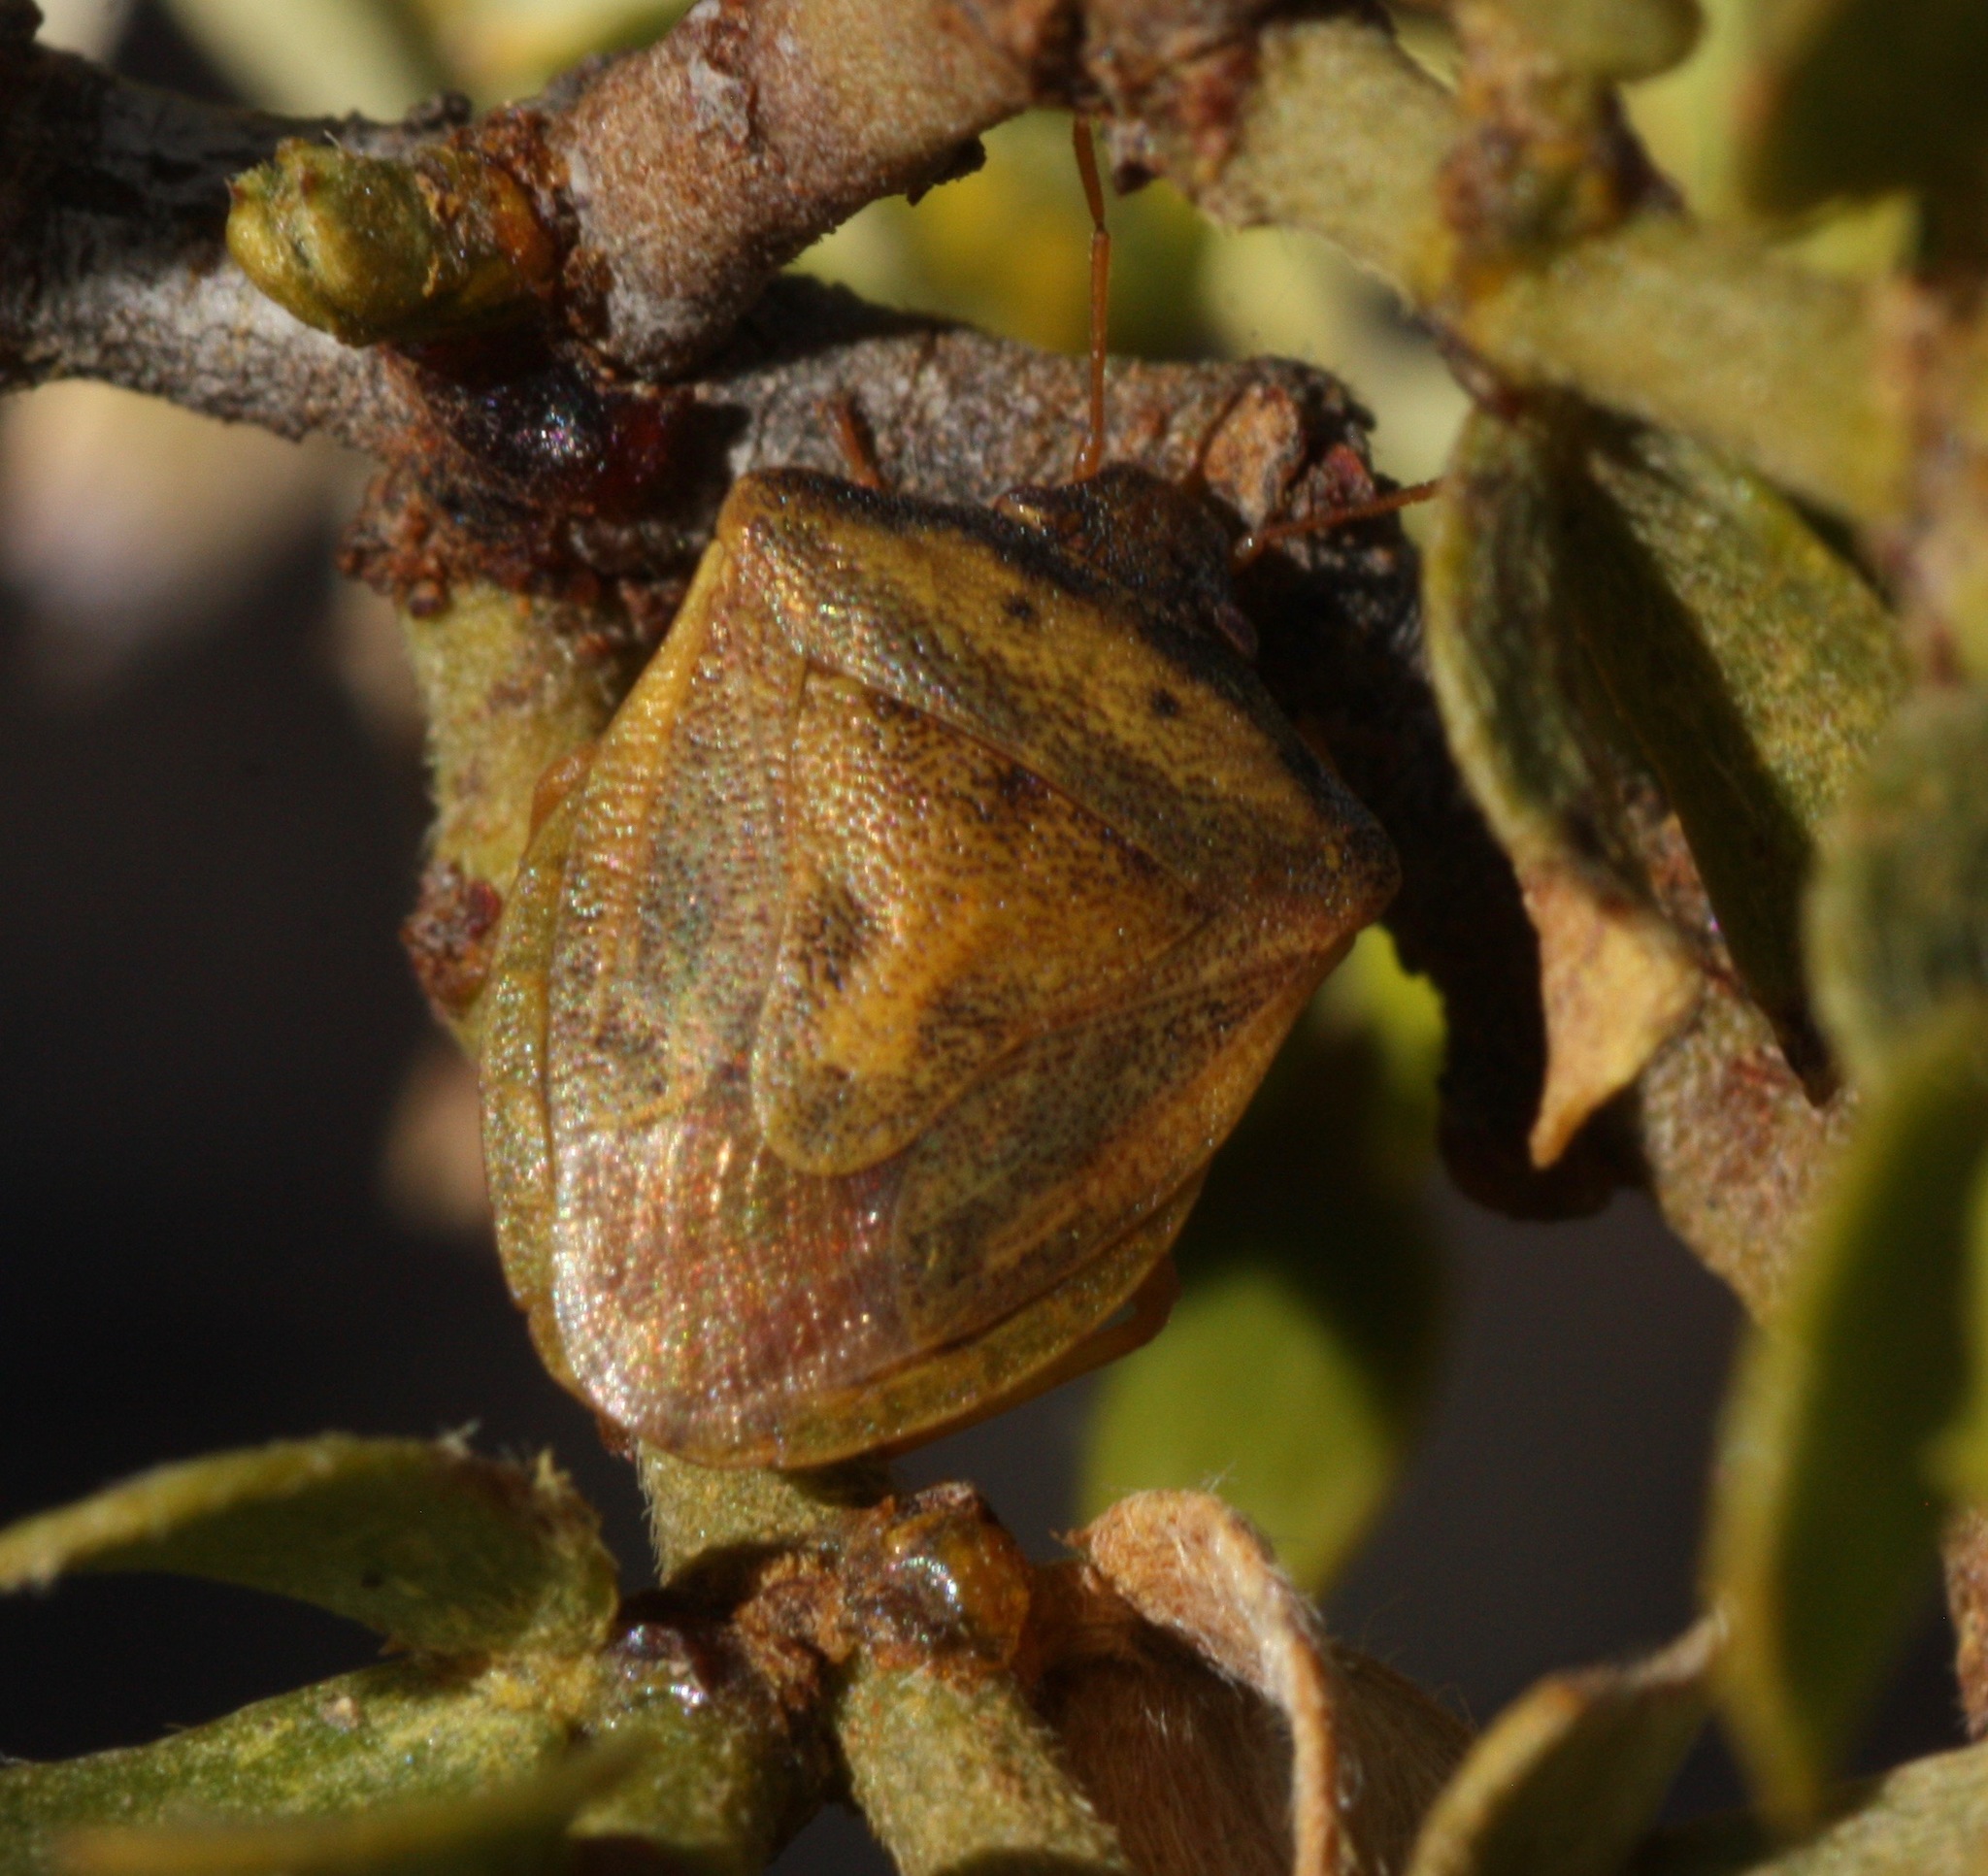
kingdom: Animalia
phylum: Arthropoda
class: Insecta
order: Hemiptera
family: Pentatomidae
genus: Dendrocoris
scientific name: Dendrocoris contaminatus
